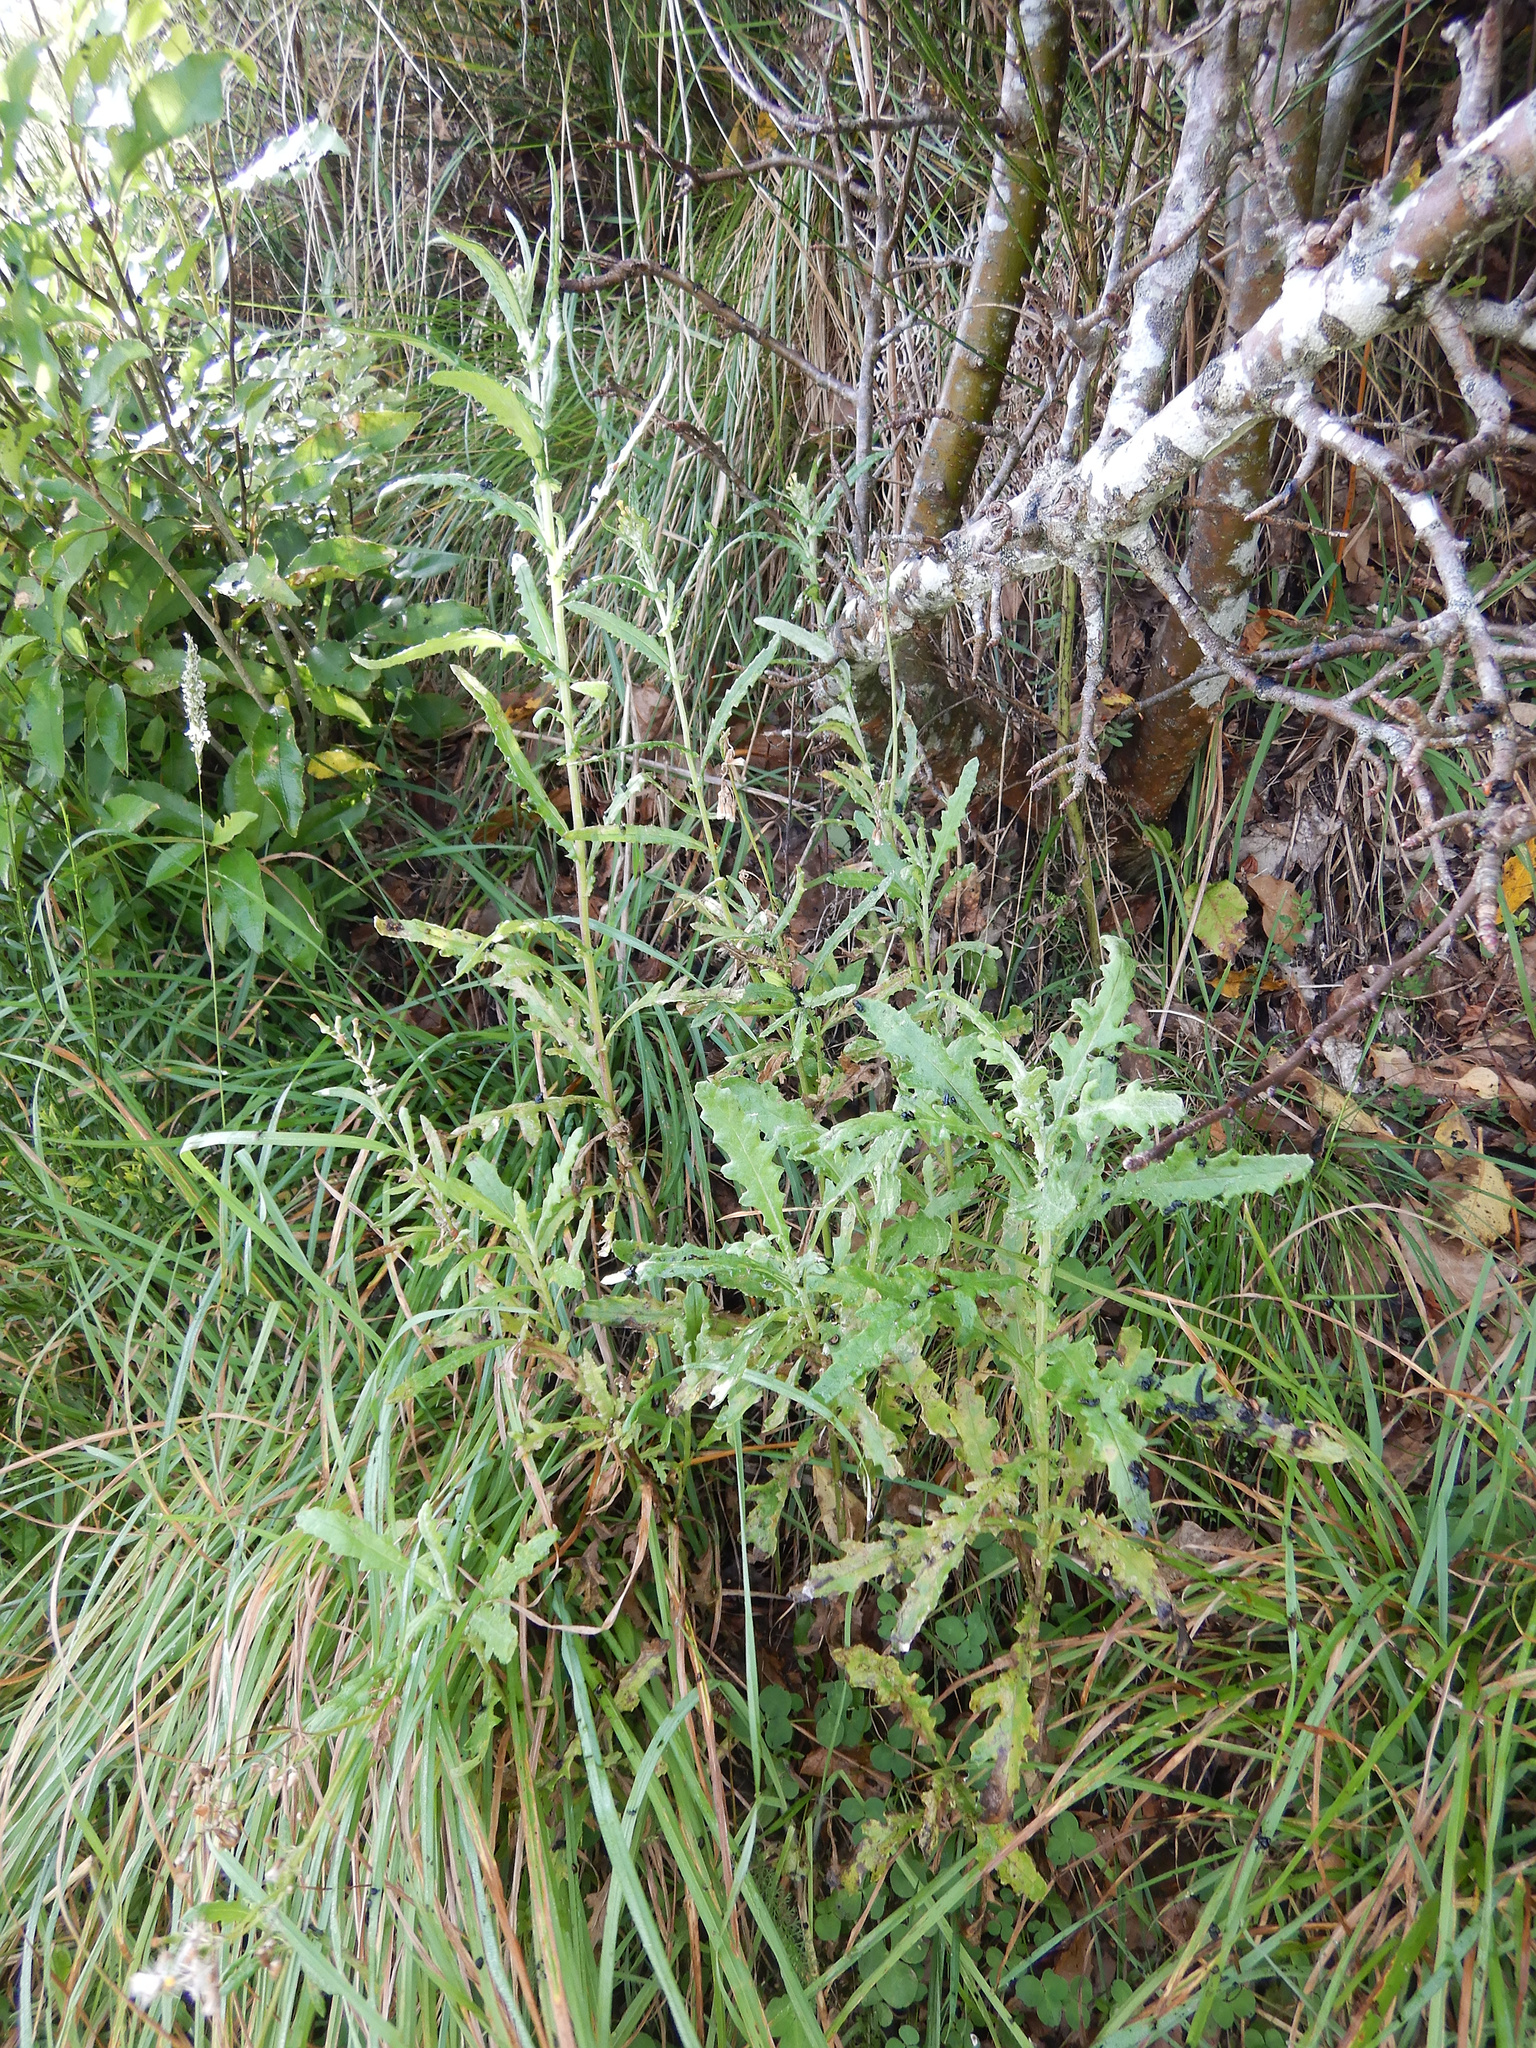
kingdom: Plantae
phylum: Tracheophyta
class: Magnoliopsida
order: Asterales
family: Asteraceae
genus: Senecio
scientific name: Senecio glomeratus
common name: Cutleaf burnweed
